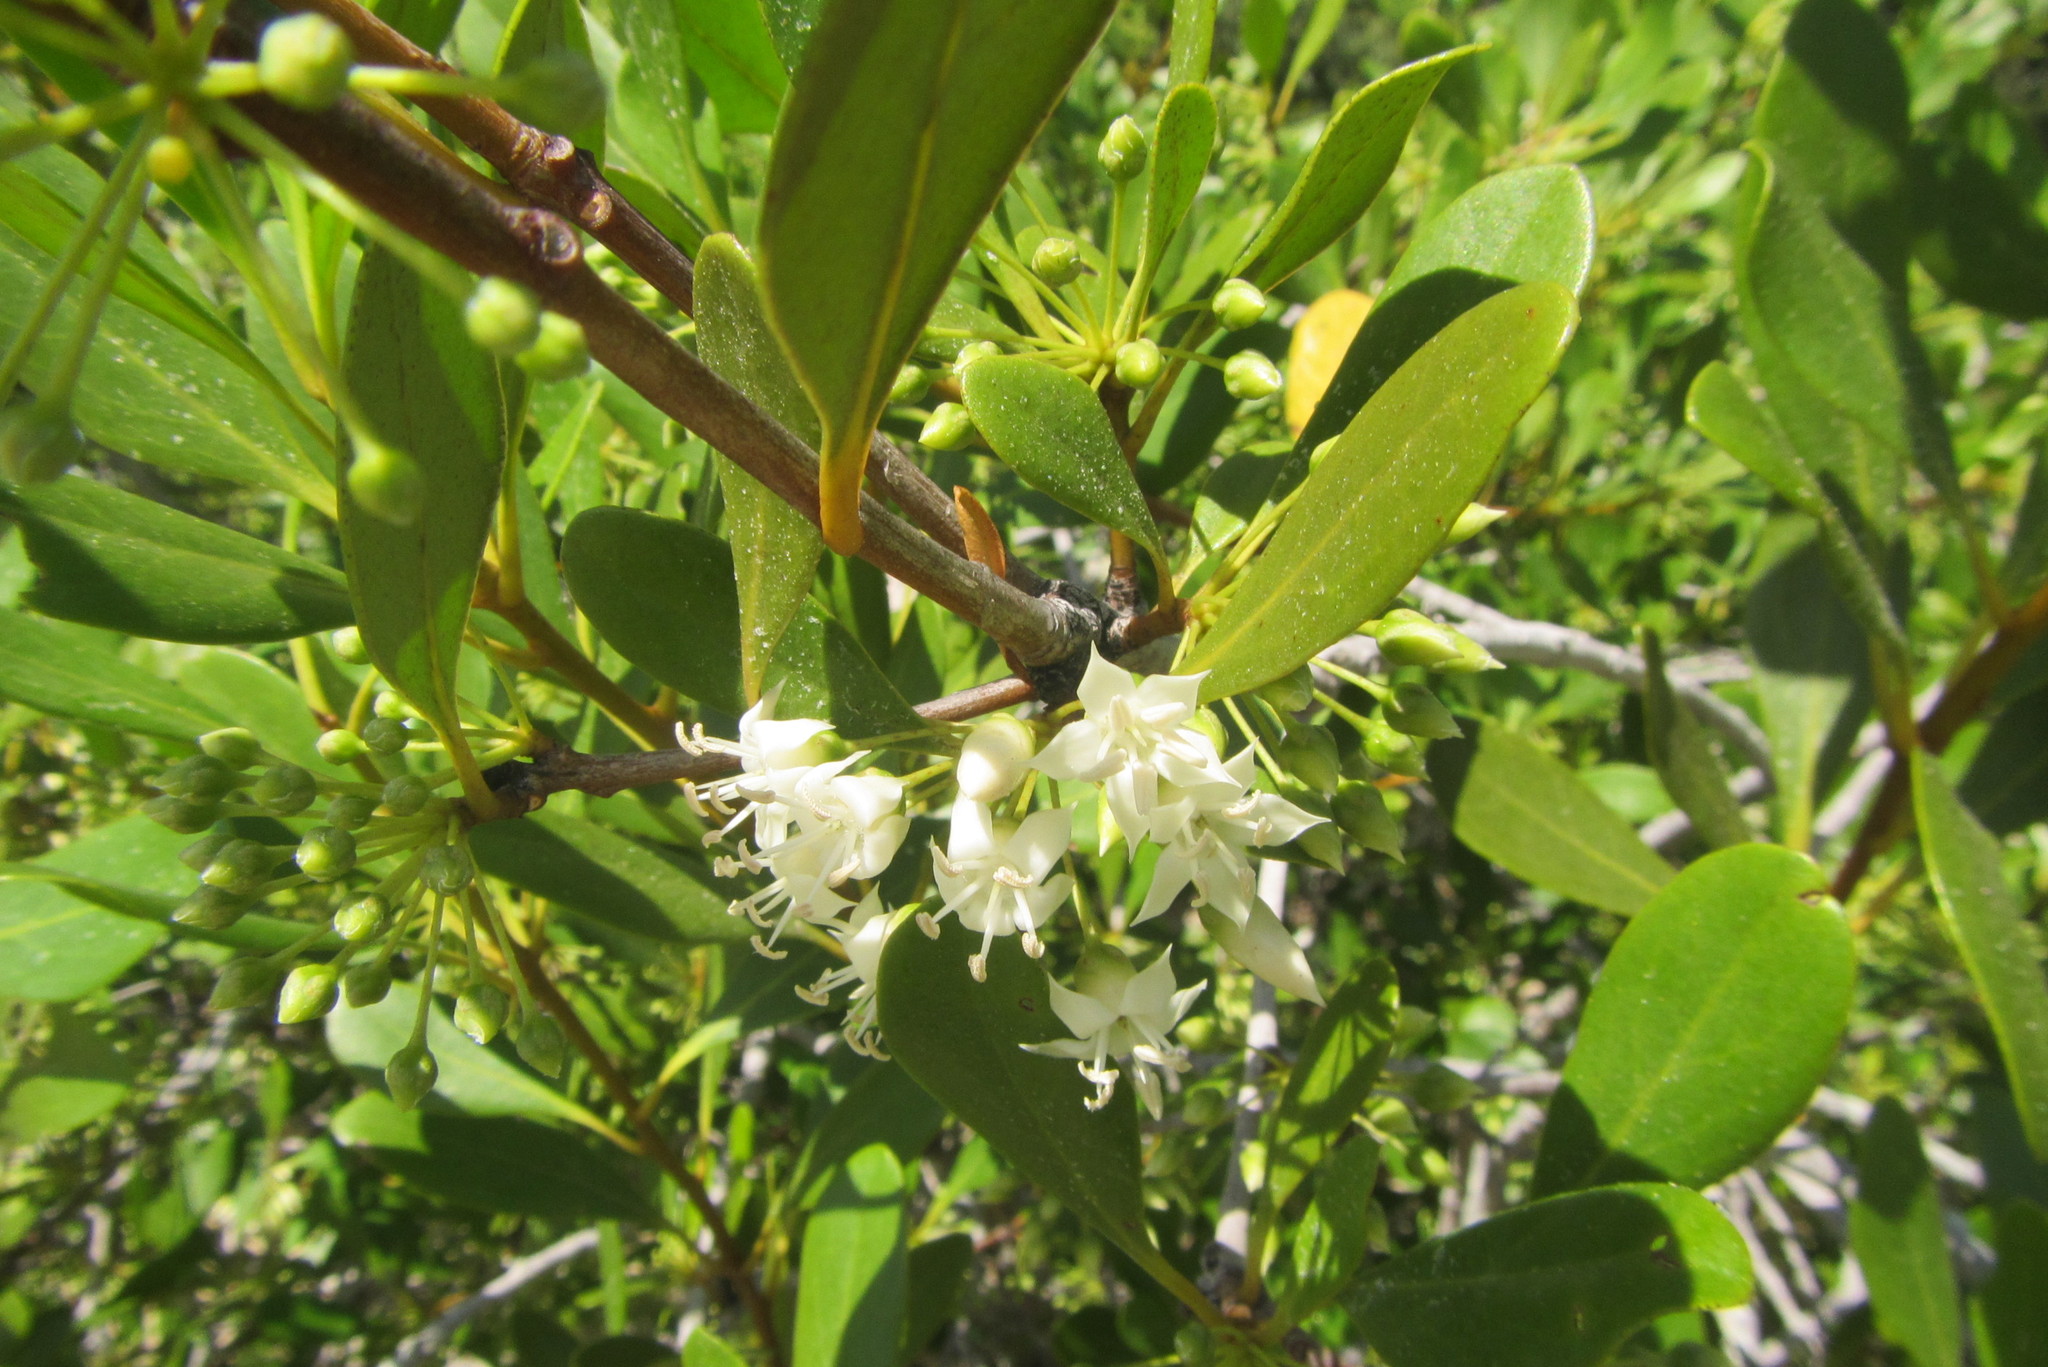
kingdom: Plantae
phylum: Tracheophyta
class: Magnoliopsida
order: Ericales
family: Primulaceae
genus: Aegiceras
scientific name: Aegiceras corniculatum
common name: River mangrove
